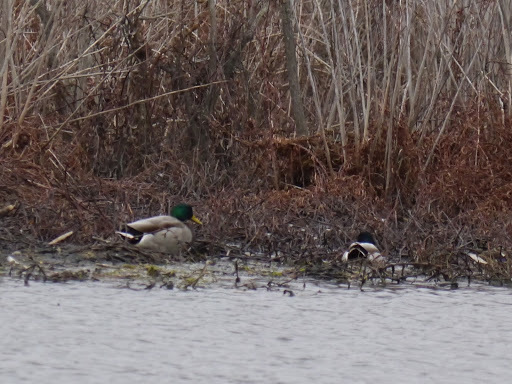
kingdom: Animalia
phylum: Chordata
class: Aves
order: Anseriformes
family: Anatidae
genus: Anas
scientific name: Anas platyrhynchos
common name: Mallard
